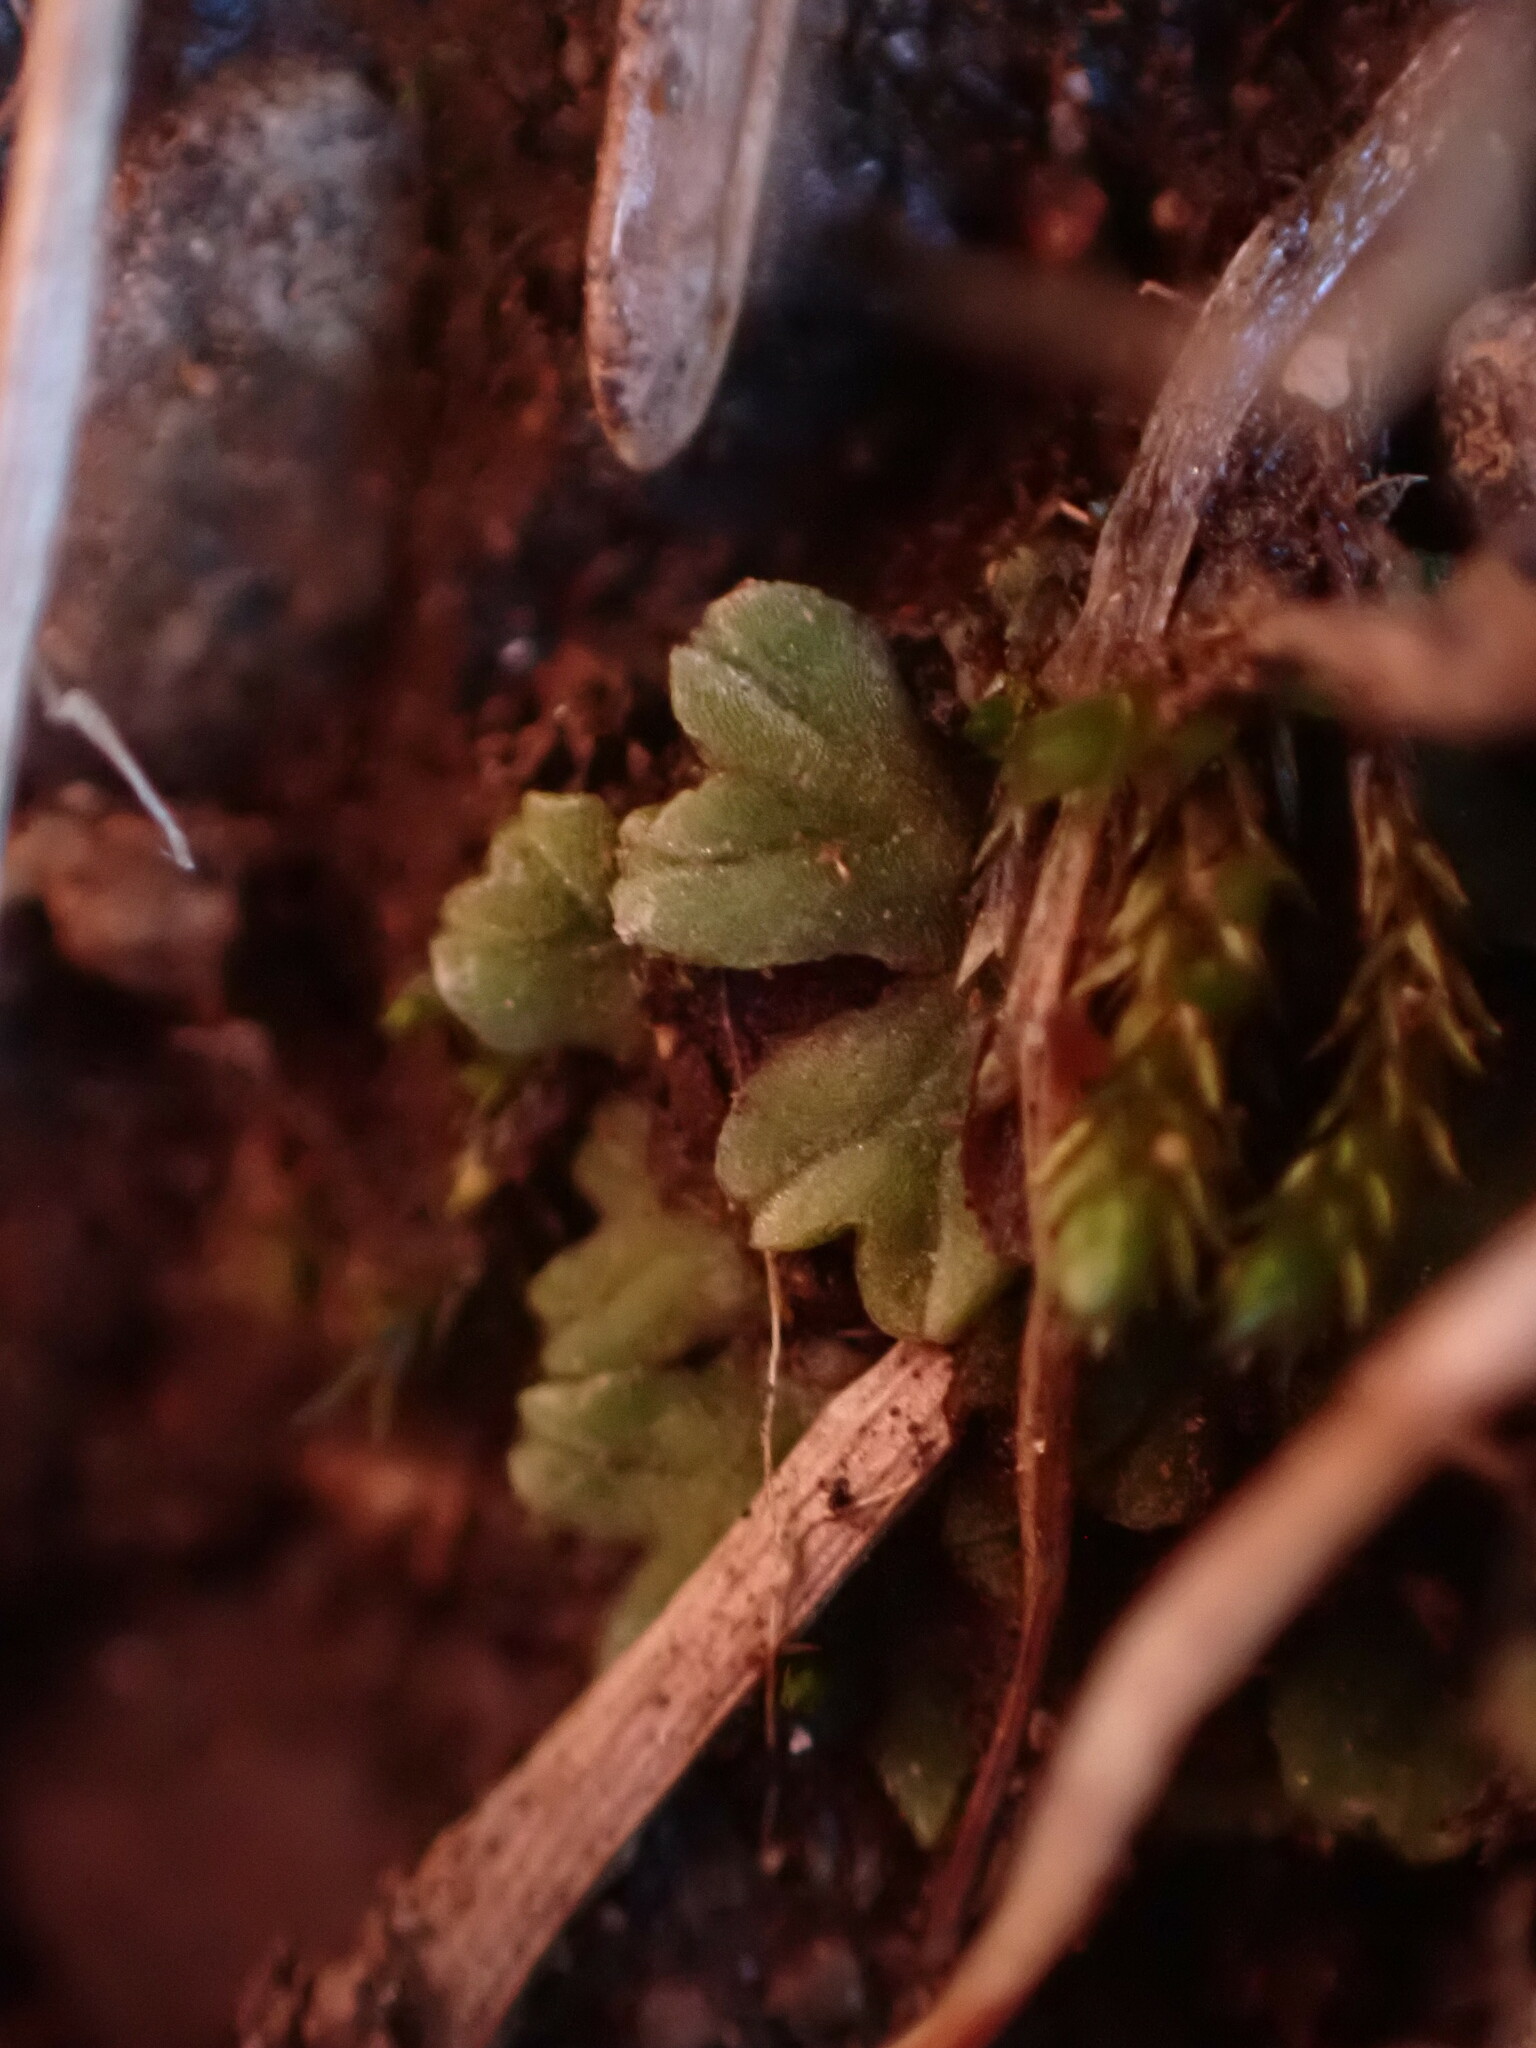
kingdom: Plantae
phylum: Marchantiophyta
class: Marchantiopsida
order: Marchantiales
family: Ricciaceae
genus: Riccia
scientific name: Riccia sorocarpa
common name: Common crystalwort
